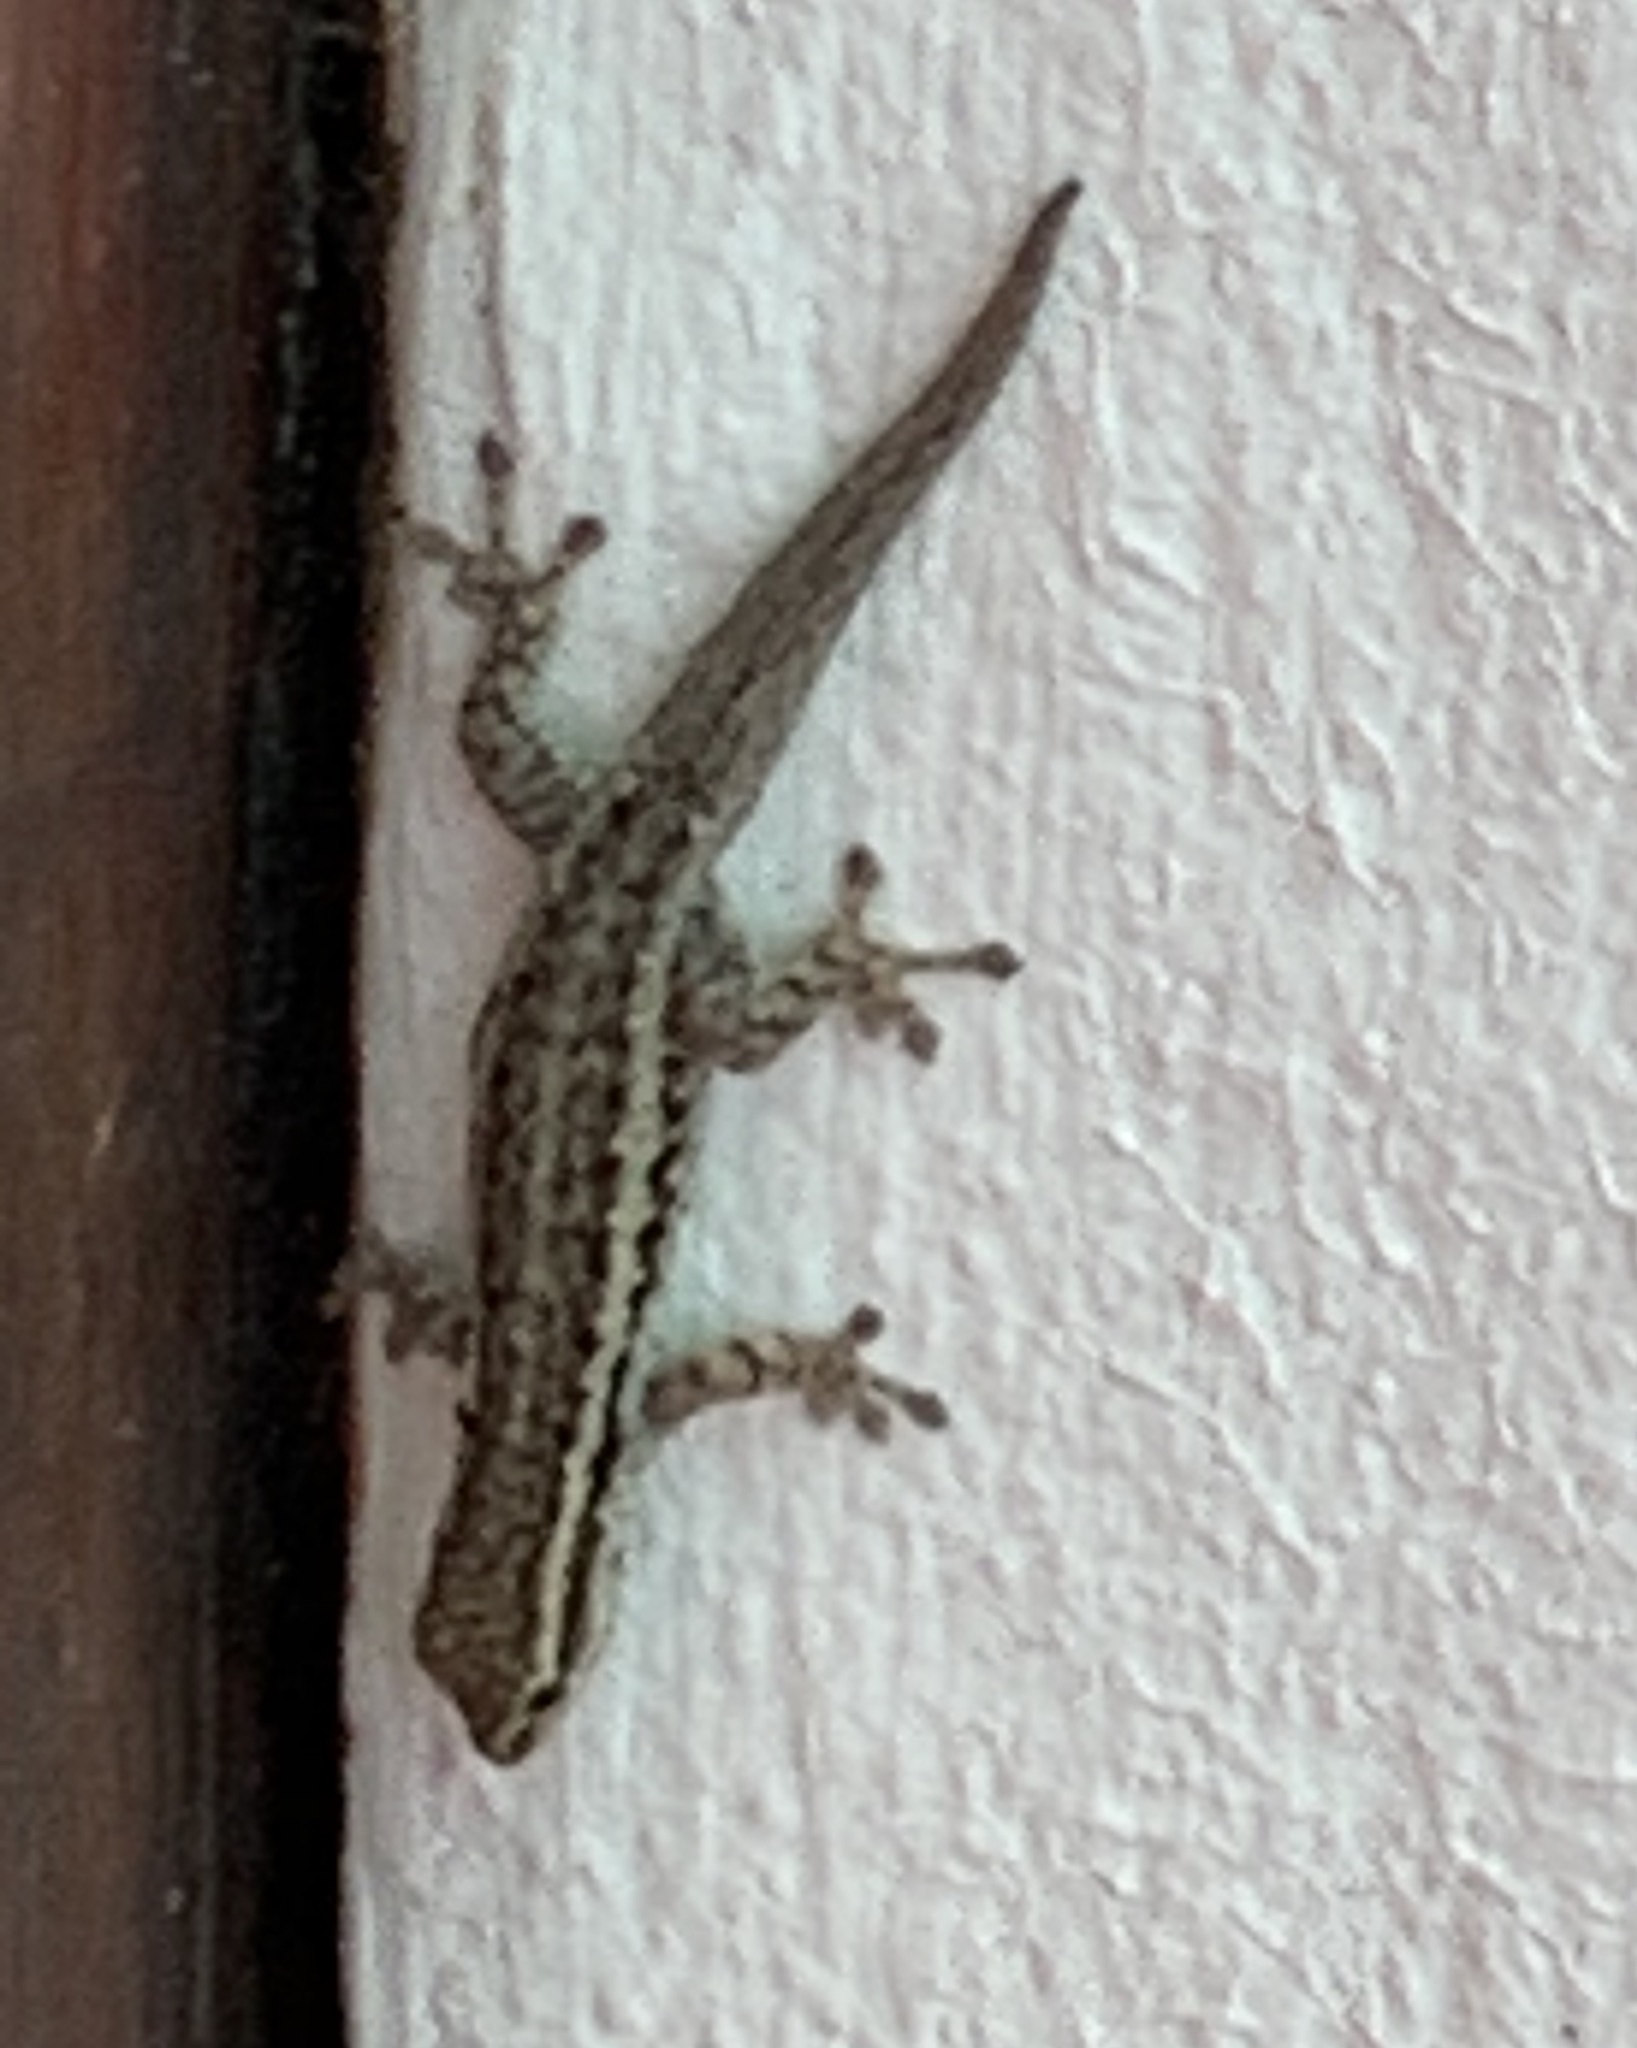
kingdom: Animalia
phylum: Chordata
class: Squamata
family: Gekkonidae
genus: Lygodactylus
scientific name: Lygodactylus capensis
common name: Cape dwarf gecko
